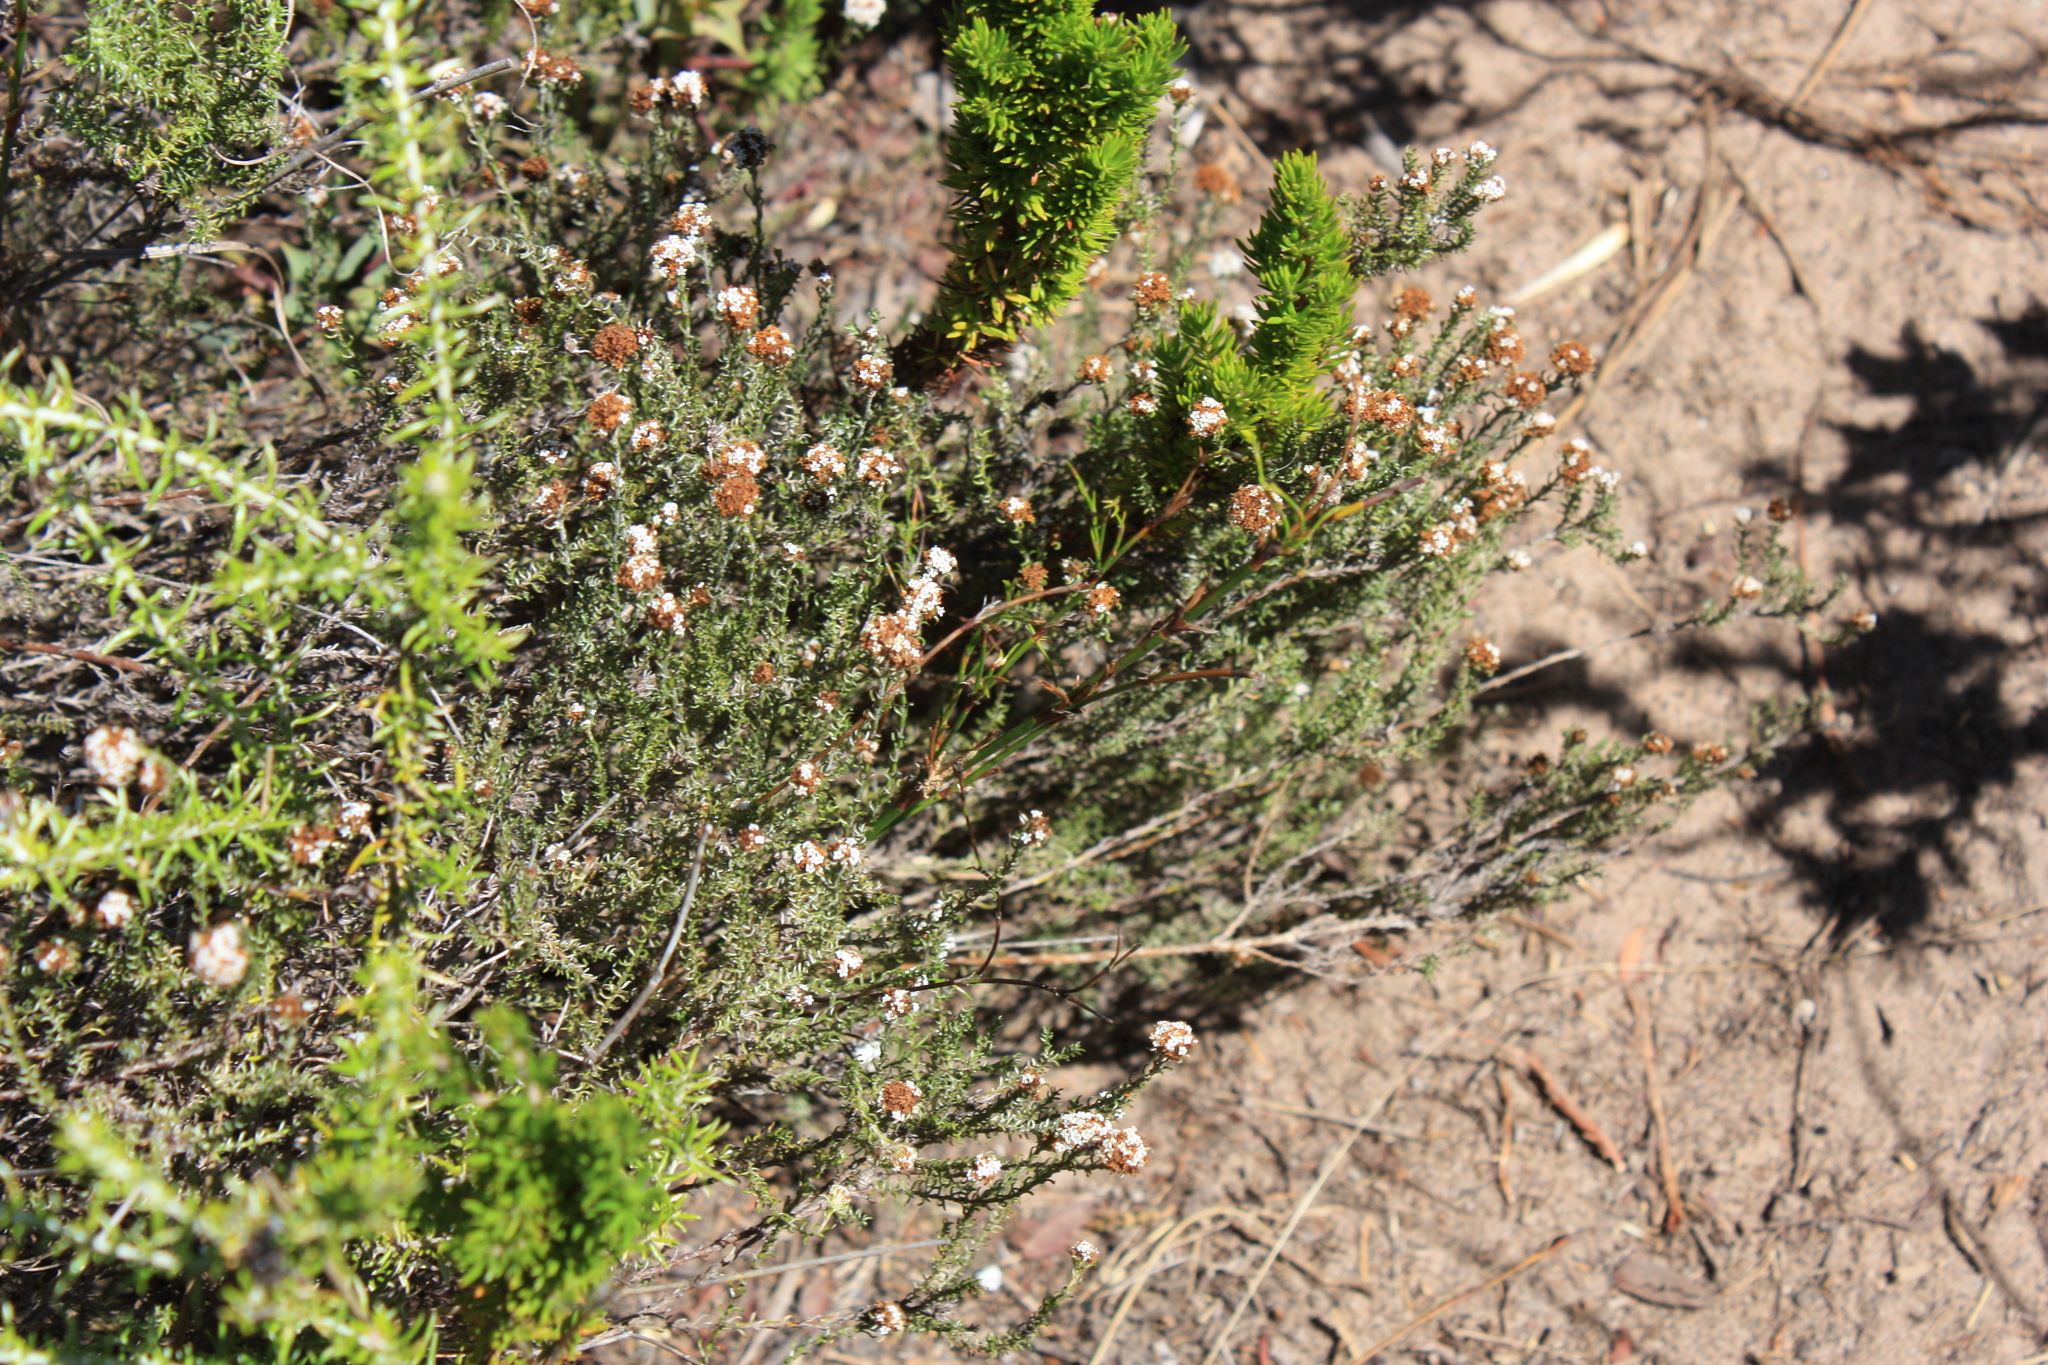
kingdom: Plantae
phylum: Tracheophyta
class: Magnoliopsida
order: Asterales
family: Asteraceae
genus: Stoebe
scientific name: Stoebe capitata
